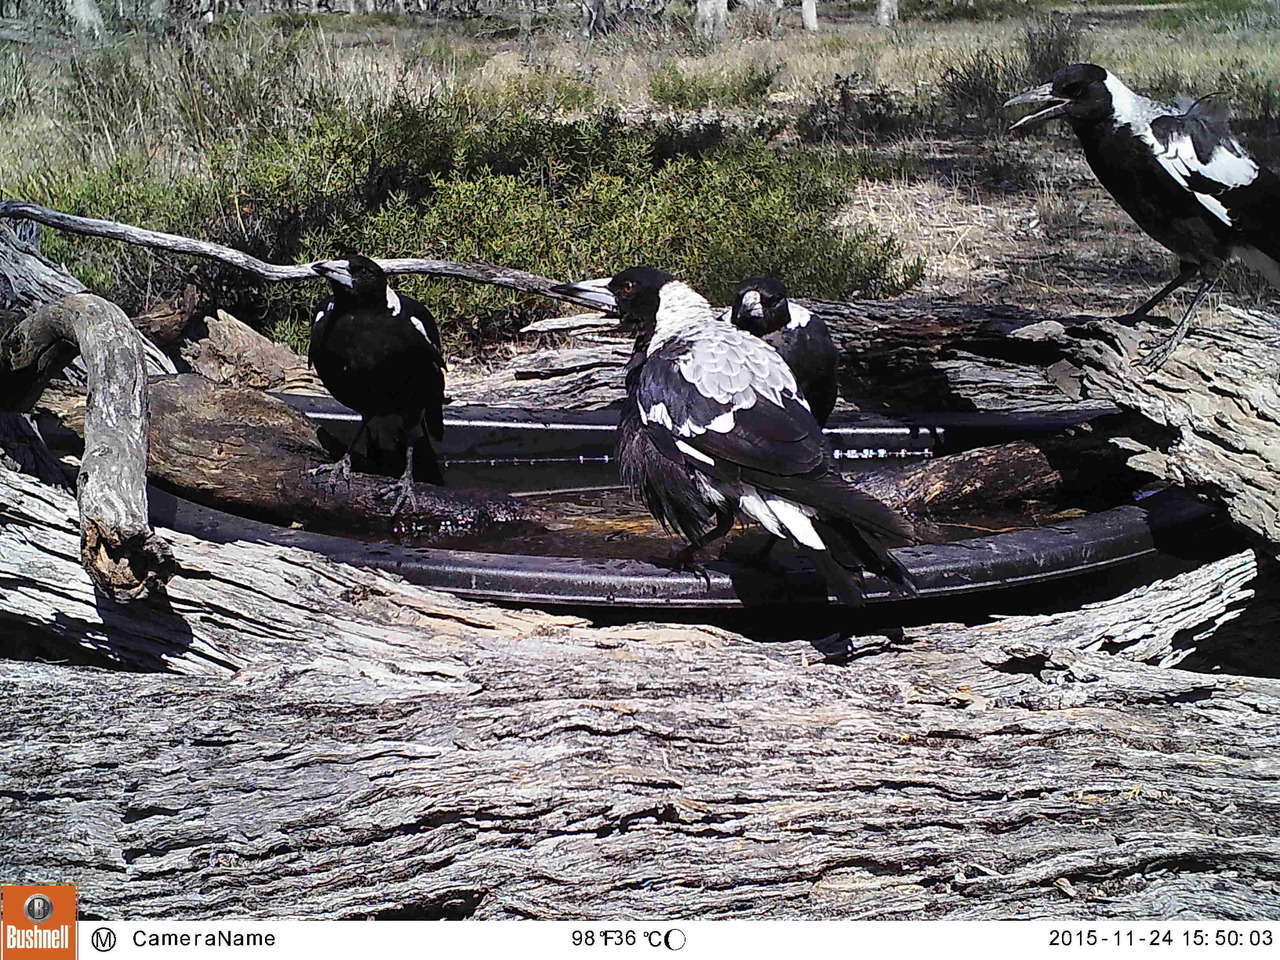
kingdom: Animalia
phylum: Chordata
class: Aves
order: Passeriformes
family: Cracticidae
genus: Gymnorhina
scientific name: Gymnorhina tibicen
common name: Australian magpie
